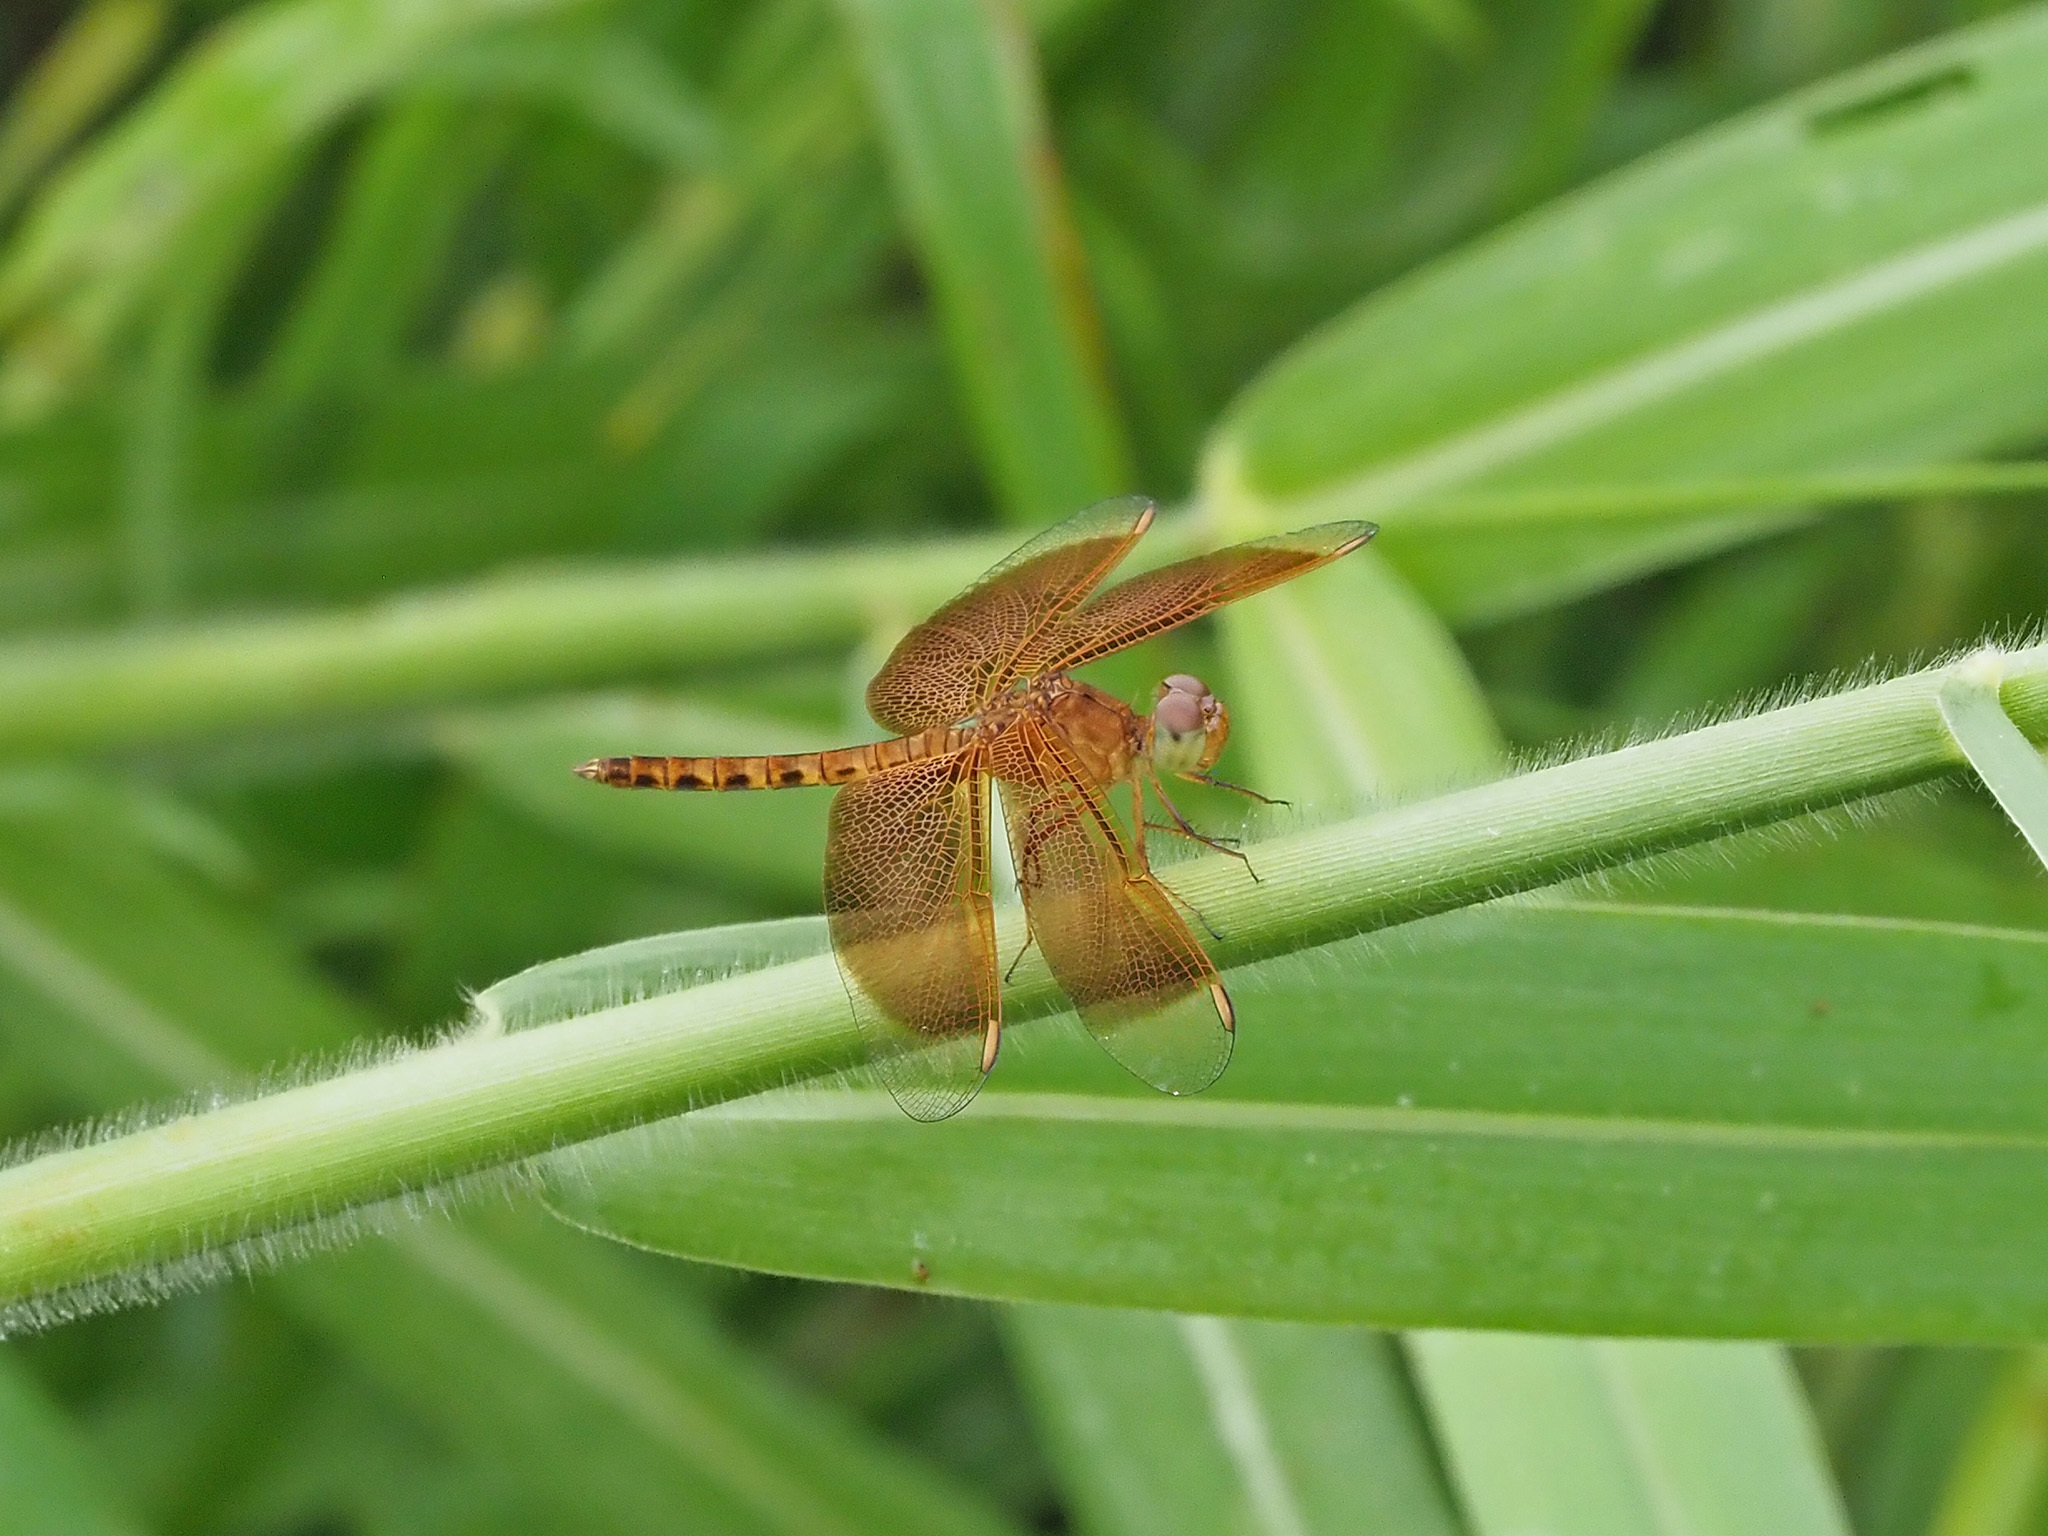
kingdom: Animalia
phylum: Arthropoda
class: Insecta
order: Odonata
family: Libellulidae
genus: Neurothemis
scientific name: Neurothemis fluctuans
